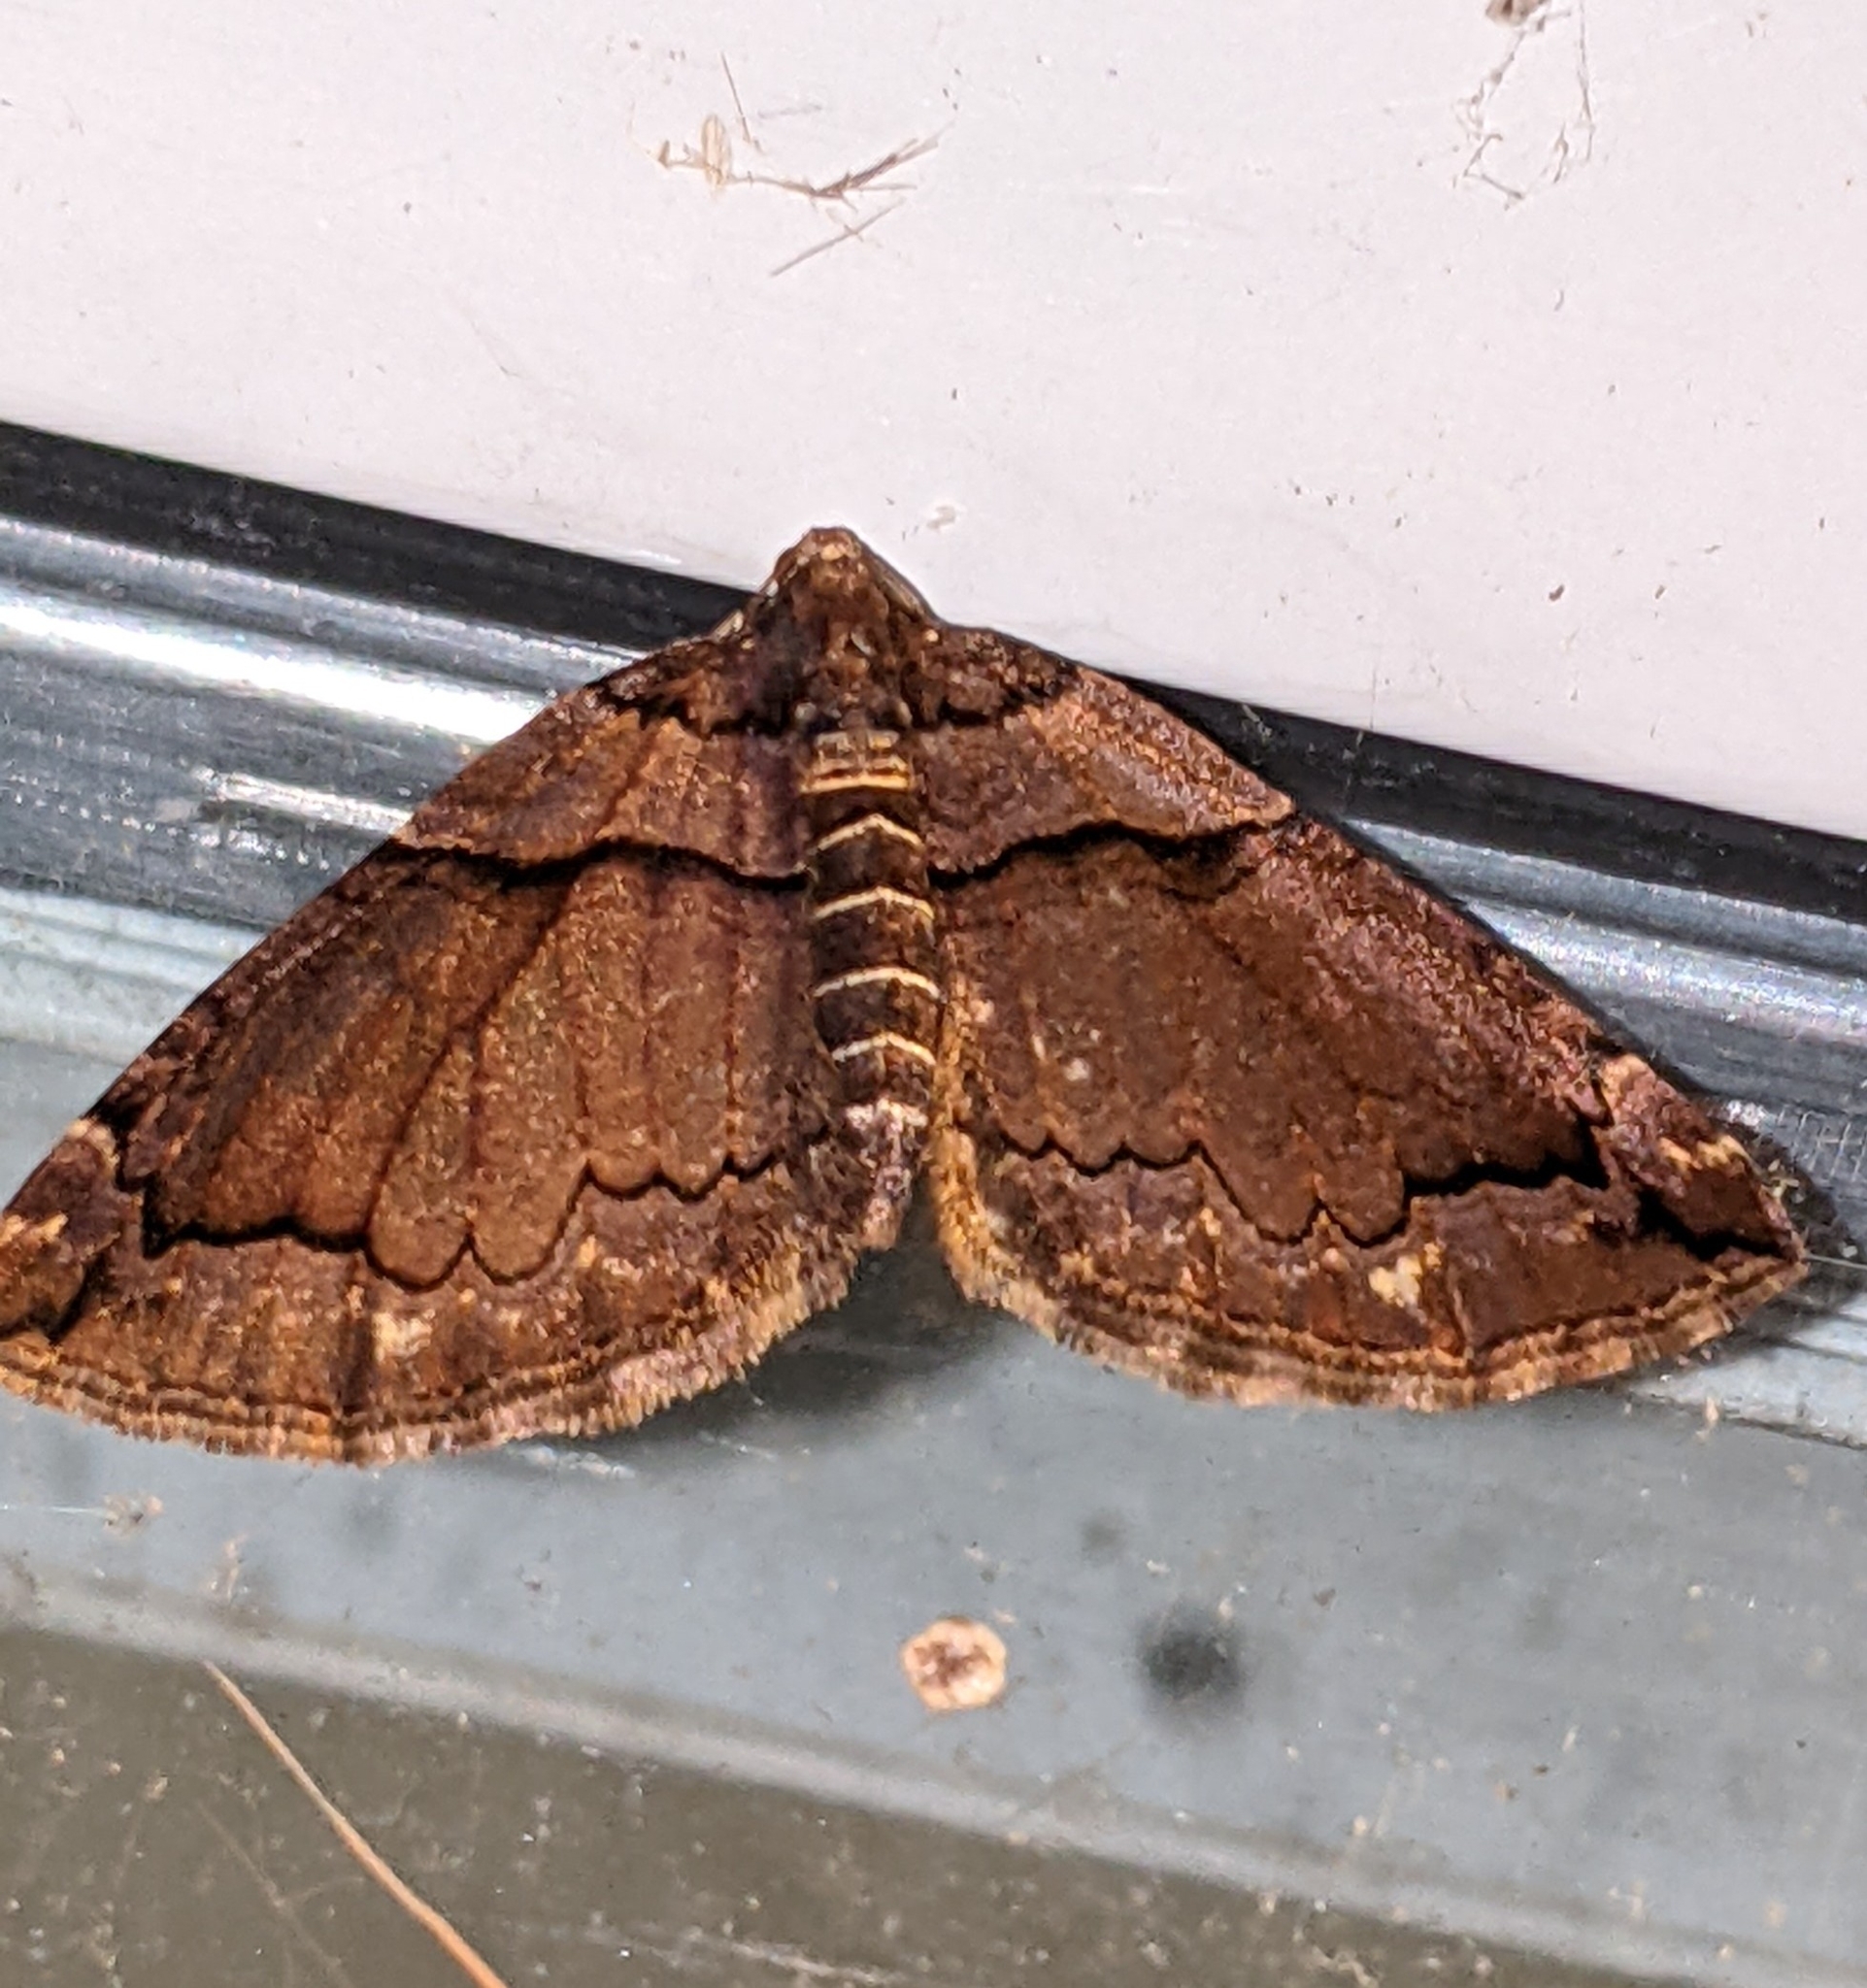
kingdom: Animalia
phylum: Arthropoda
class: Insecta
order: Lepidoptera
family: Geometridae
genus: Anticlea
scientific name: Anticlea vasiliata
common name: Variable carpet
